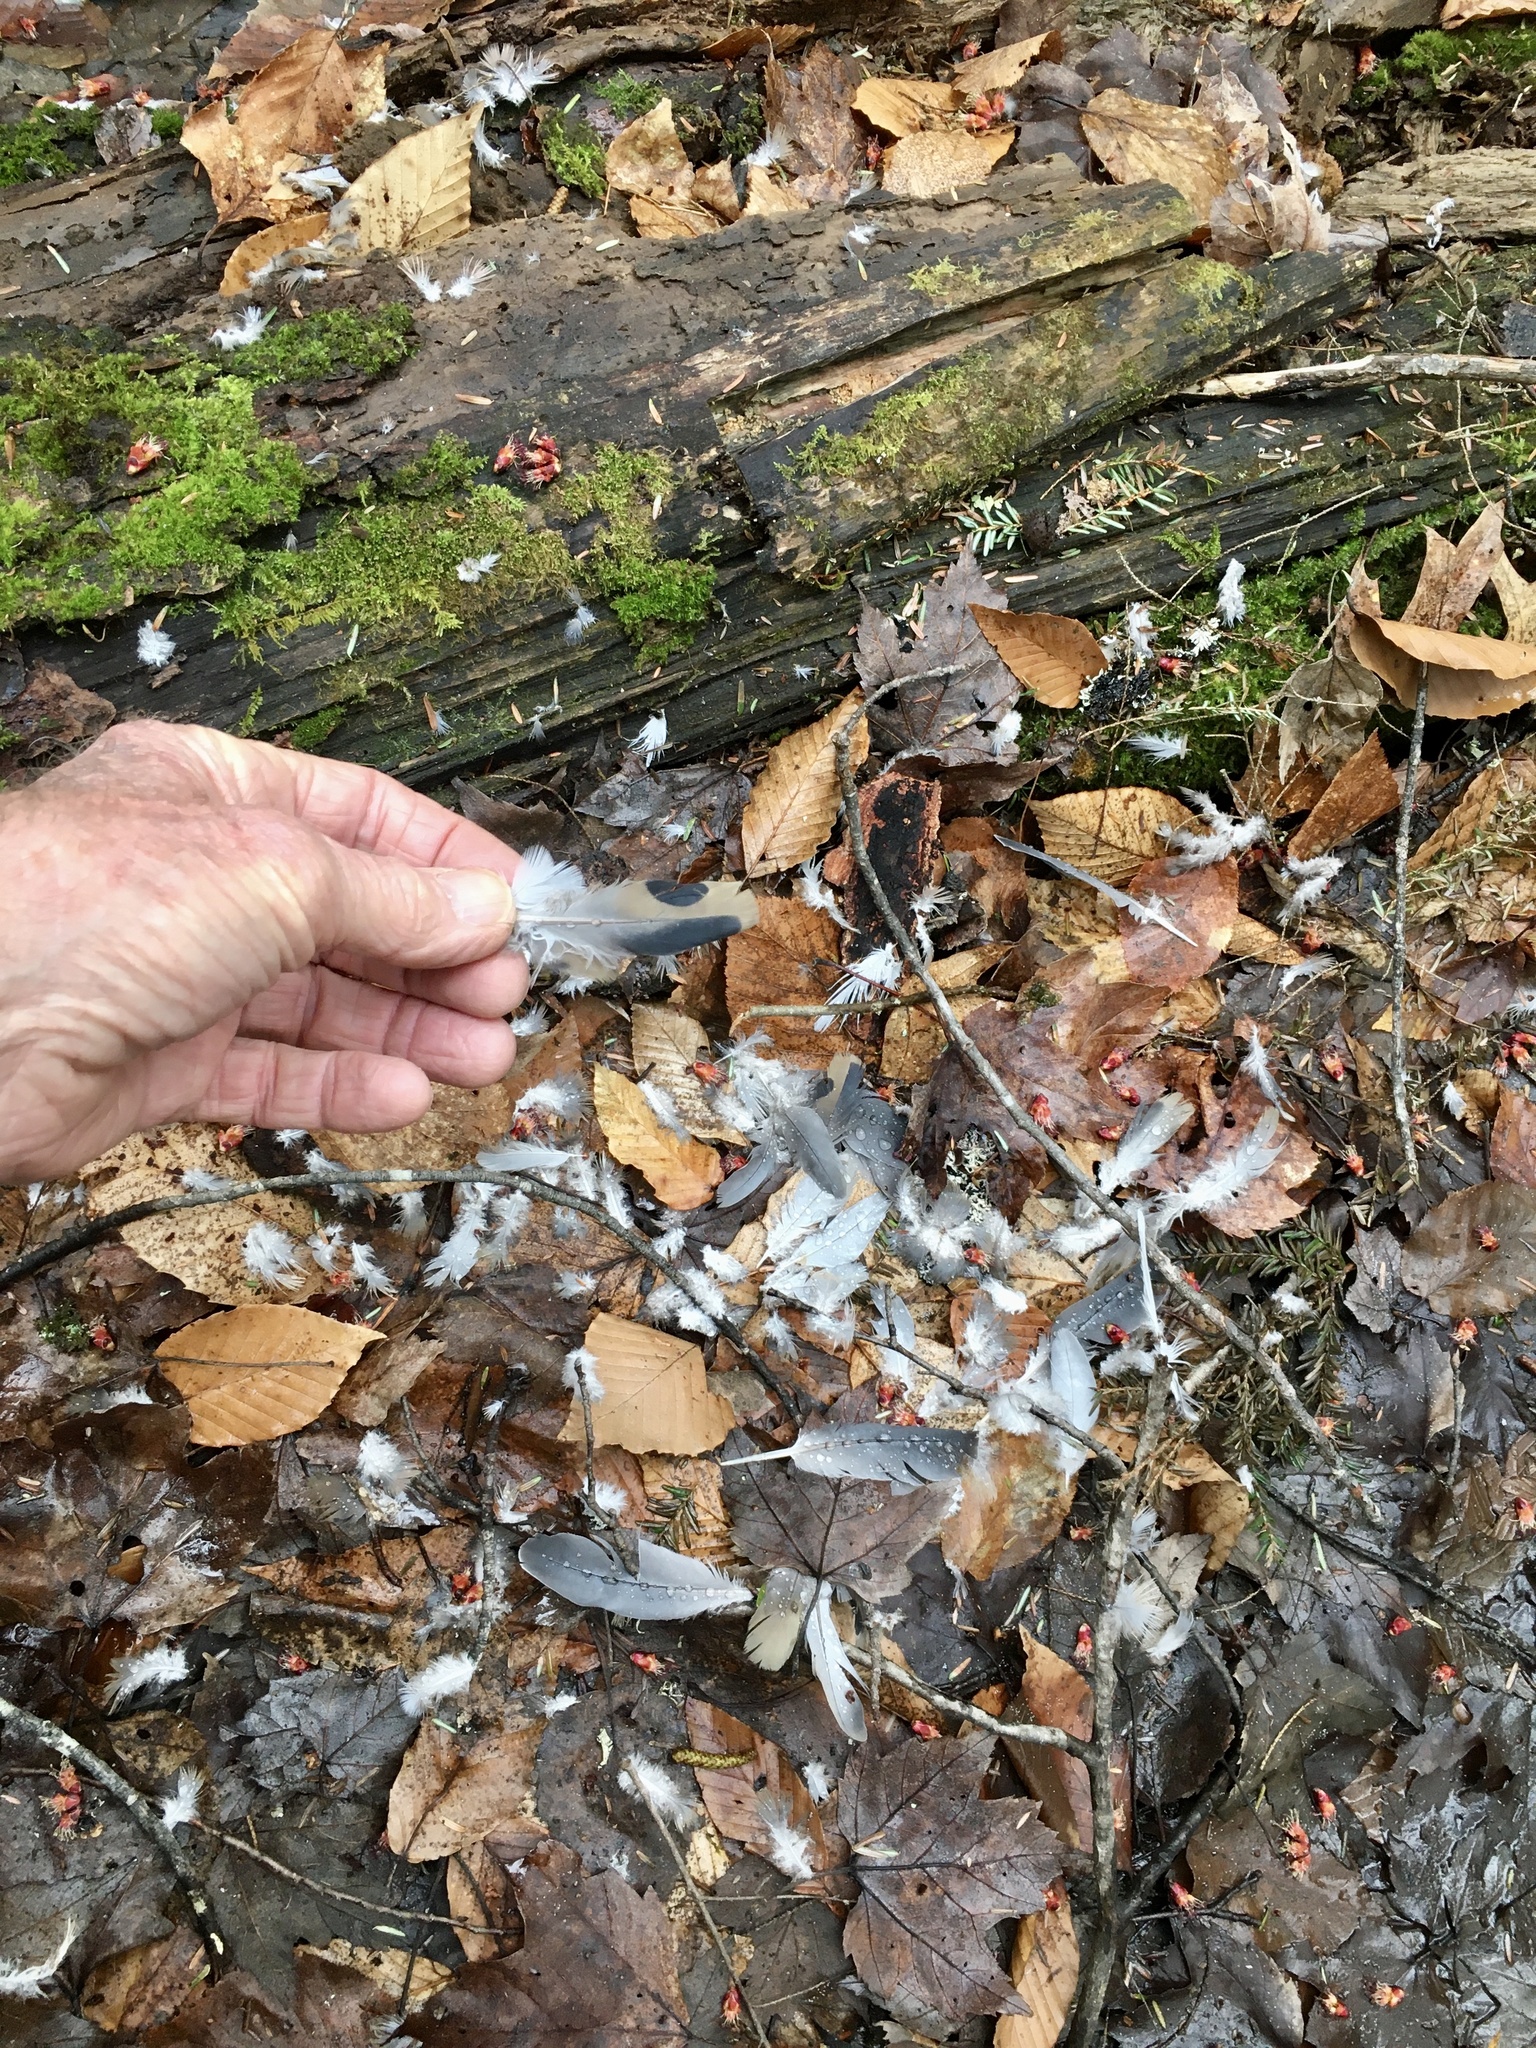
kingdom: Animalia
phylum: Chordata
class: Aves
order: Columbiformes
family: Columbidae
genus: Zenaida
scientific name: Zenaida macroura
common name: Mourning dove
